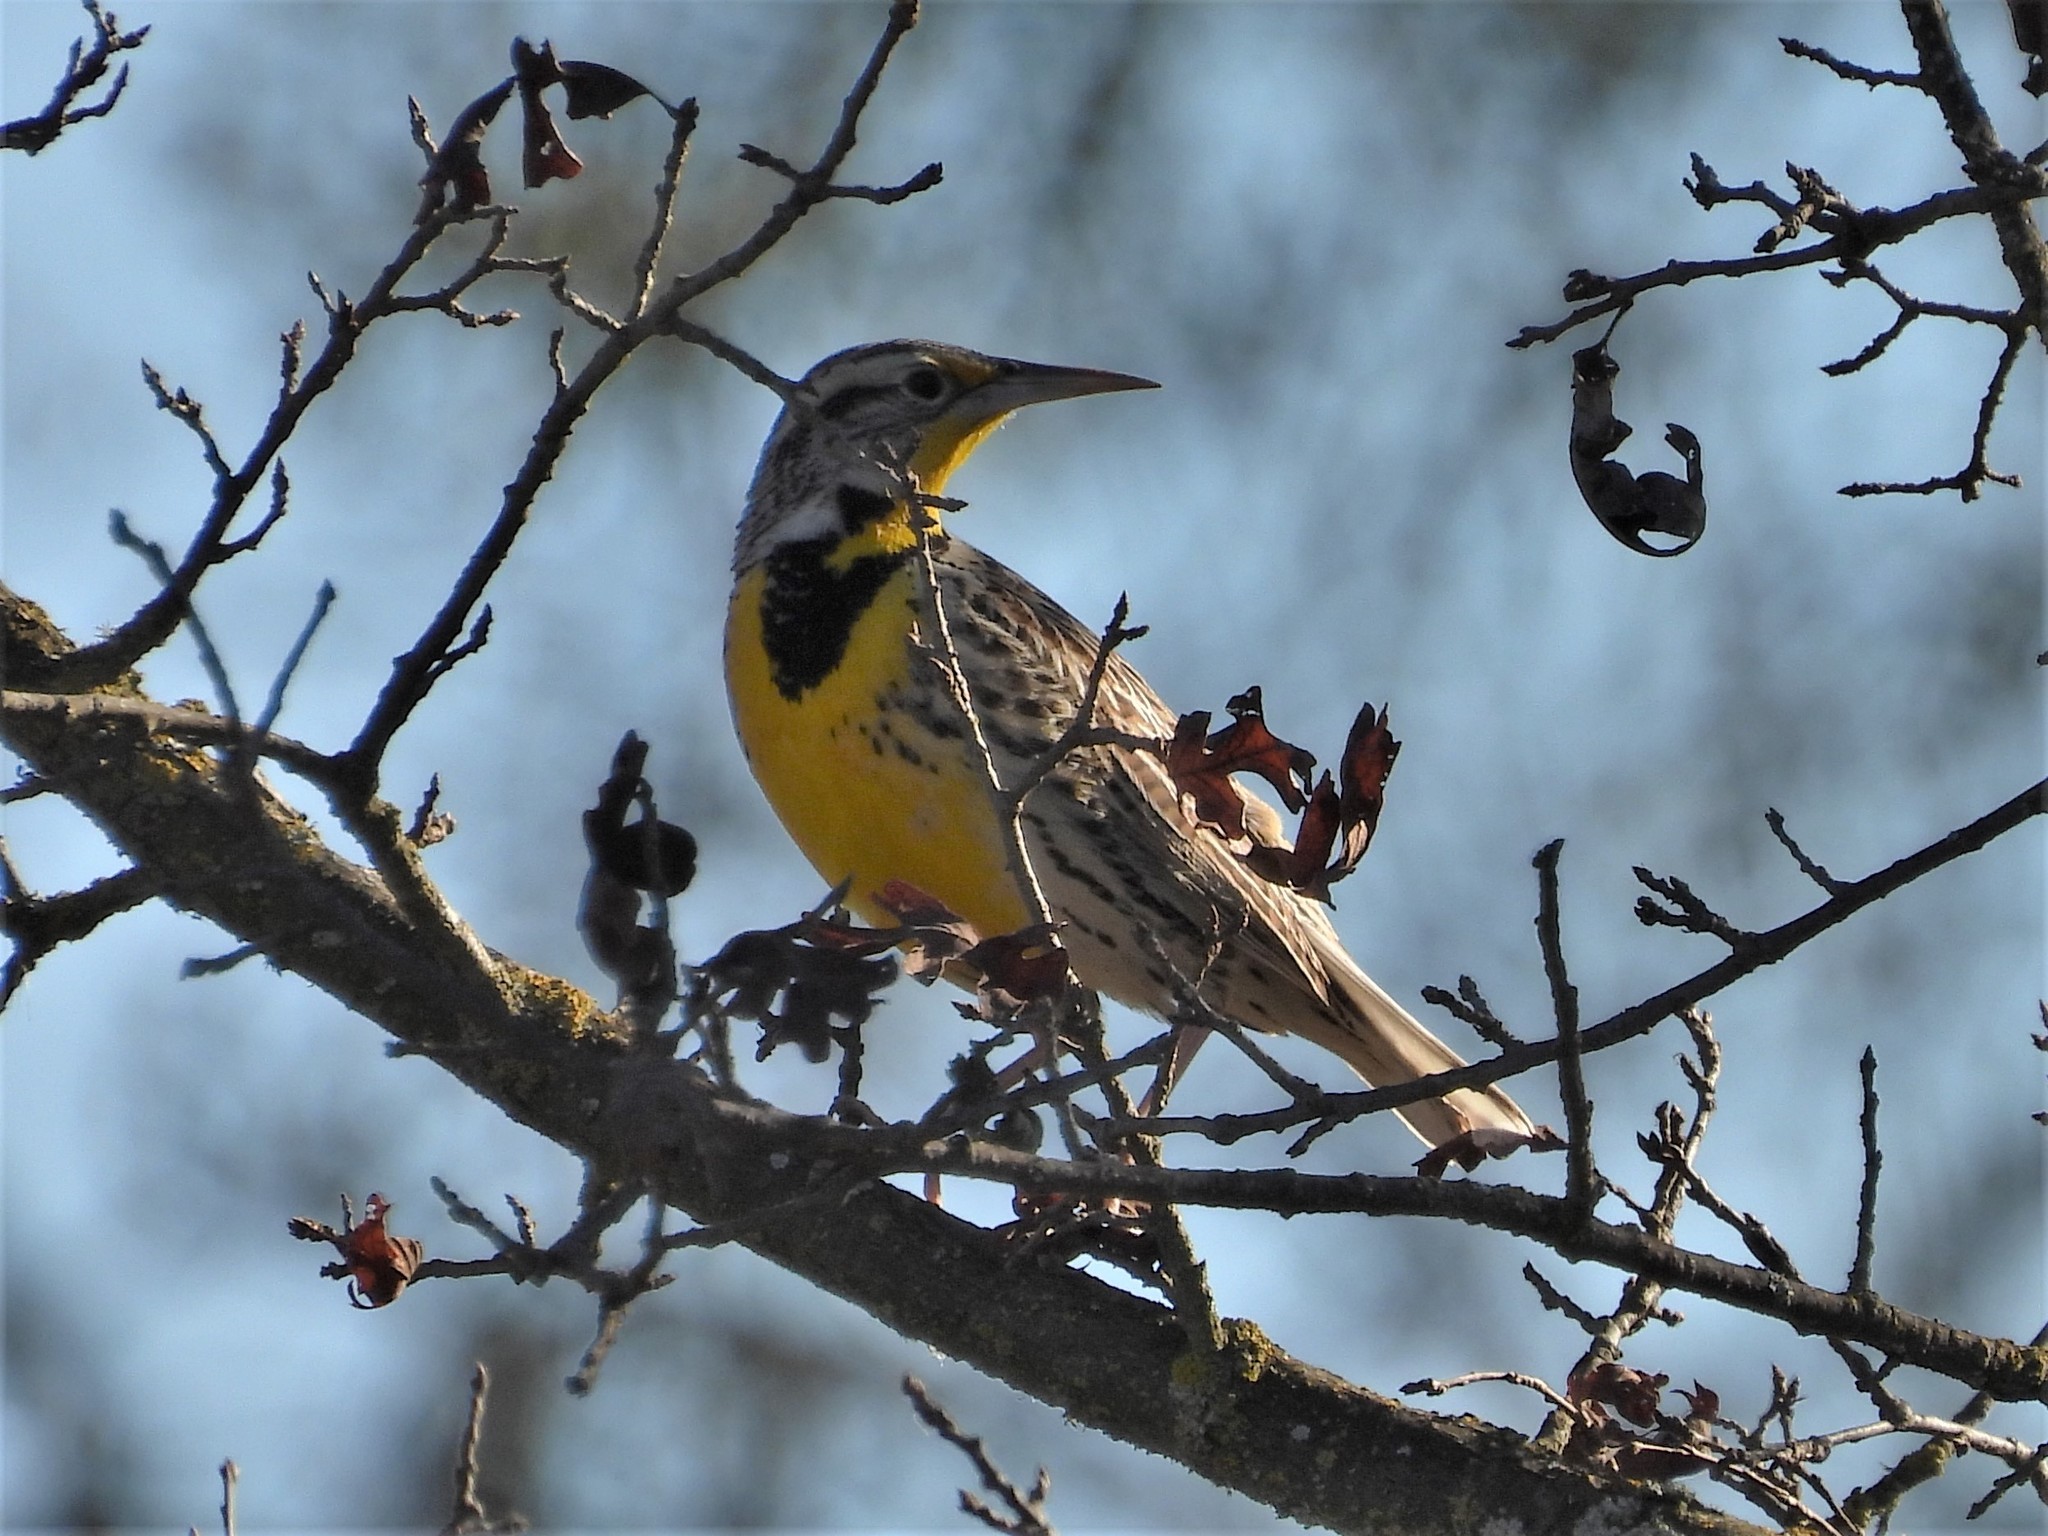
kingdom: Animalia
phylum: Chordata
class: Aves
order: Passeriformes
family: Icteridae
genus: Sturnella
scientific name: Sturnella neglecta
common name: Western meadowlark
